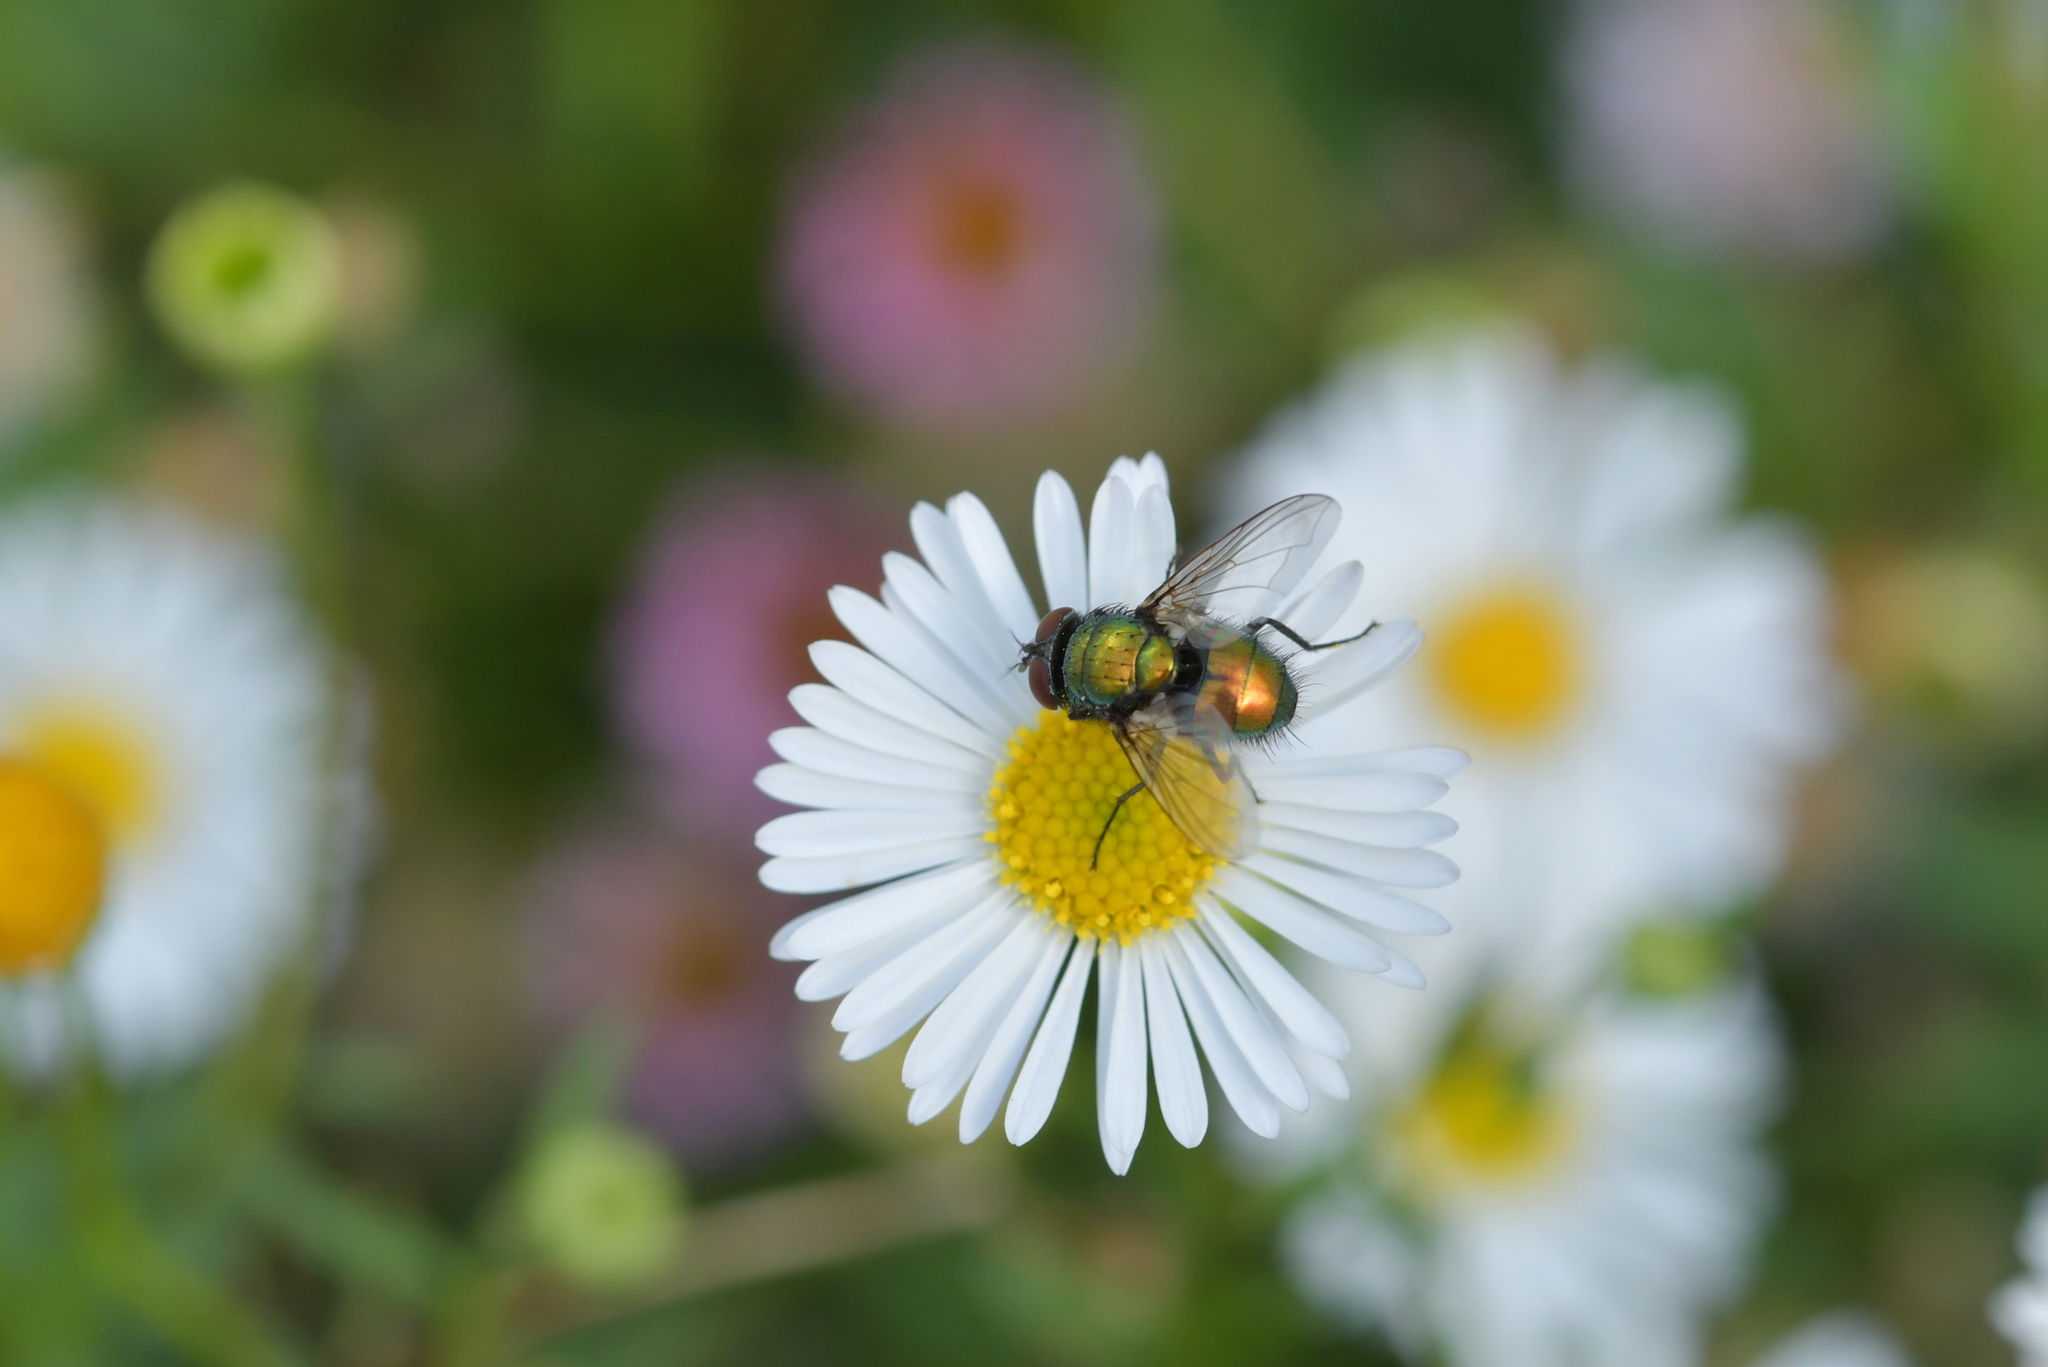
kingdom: Animalia
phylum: Arthropoda
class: Insecta
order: Diptera
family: Calliphoridae
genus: Lucilia
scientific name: Lucilia sericata
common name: Blow fly
